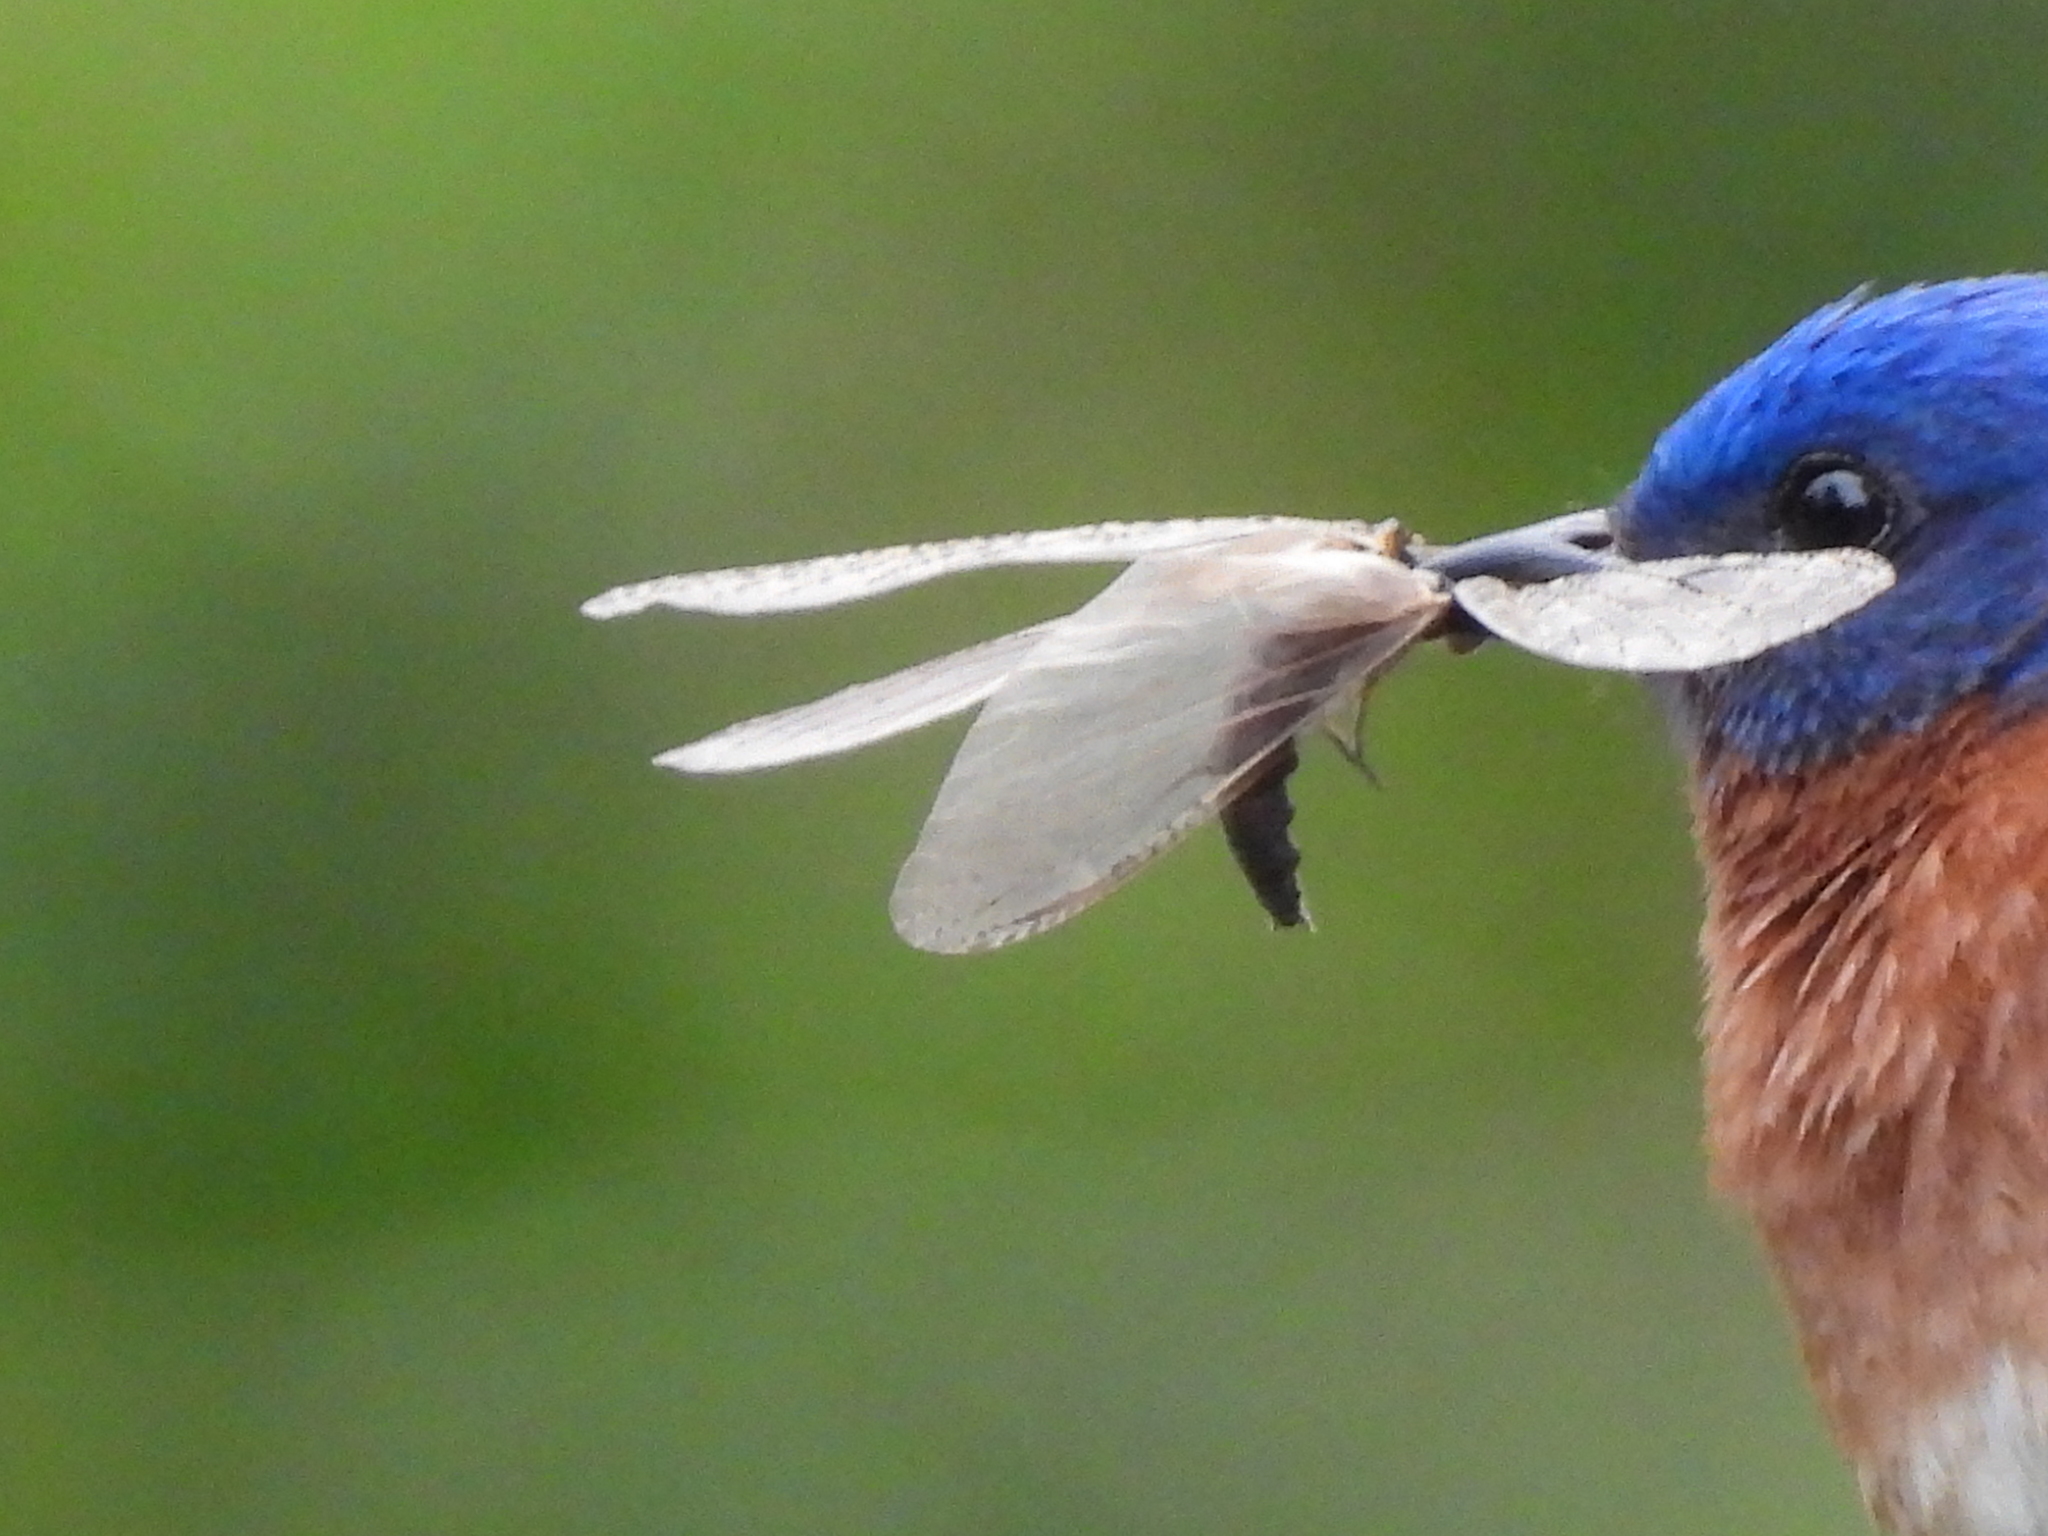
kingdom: Animalia
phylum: Chordata
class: Aves
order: Passeriformes
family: Turdidae
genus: Sialia
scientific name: Sialia sialis
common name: Eastern bluebird
